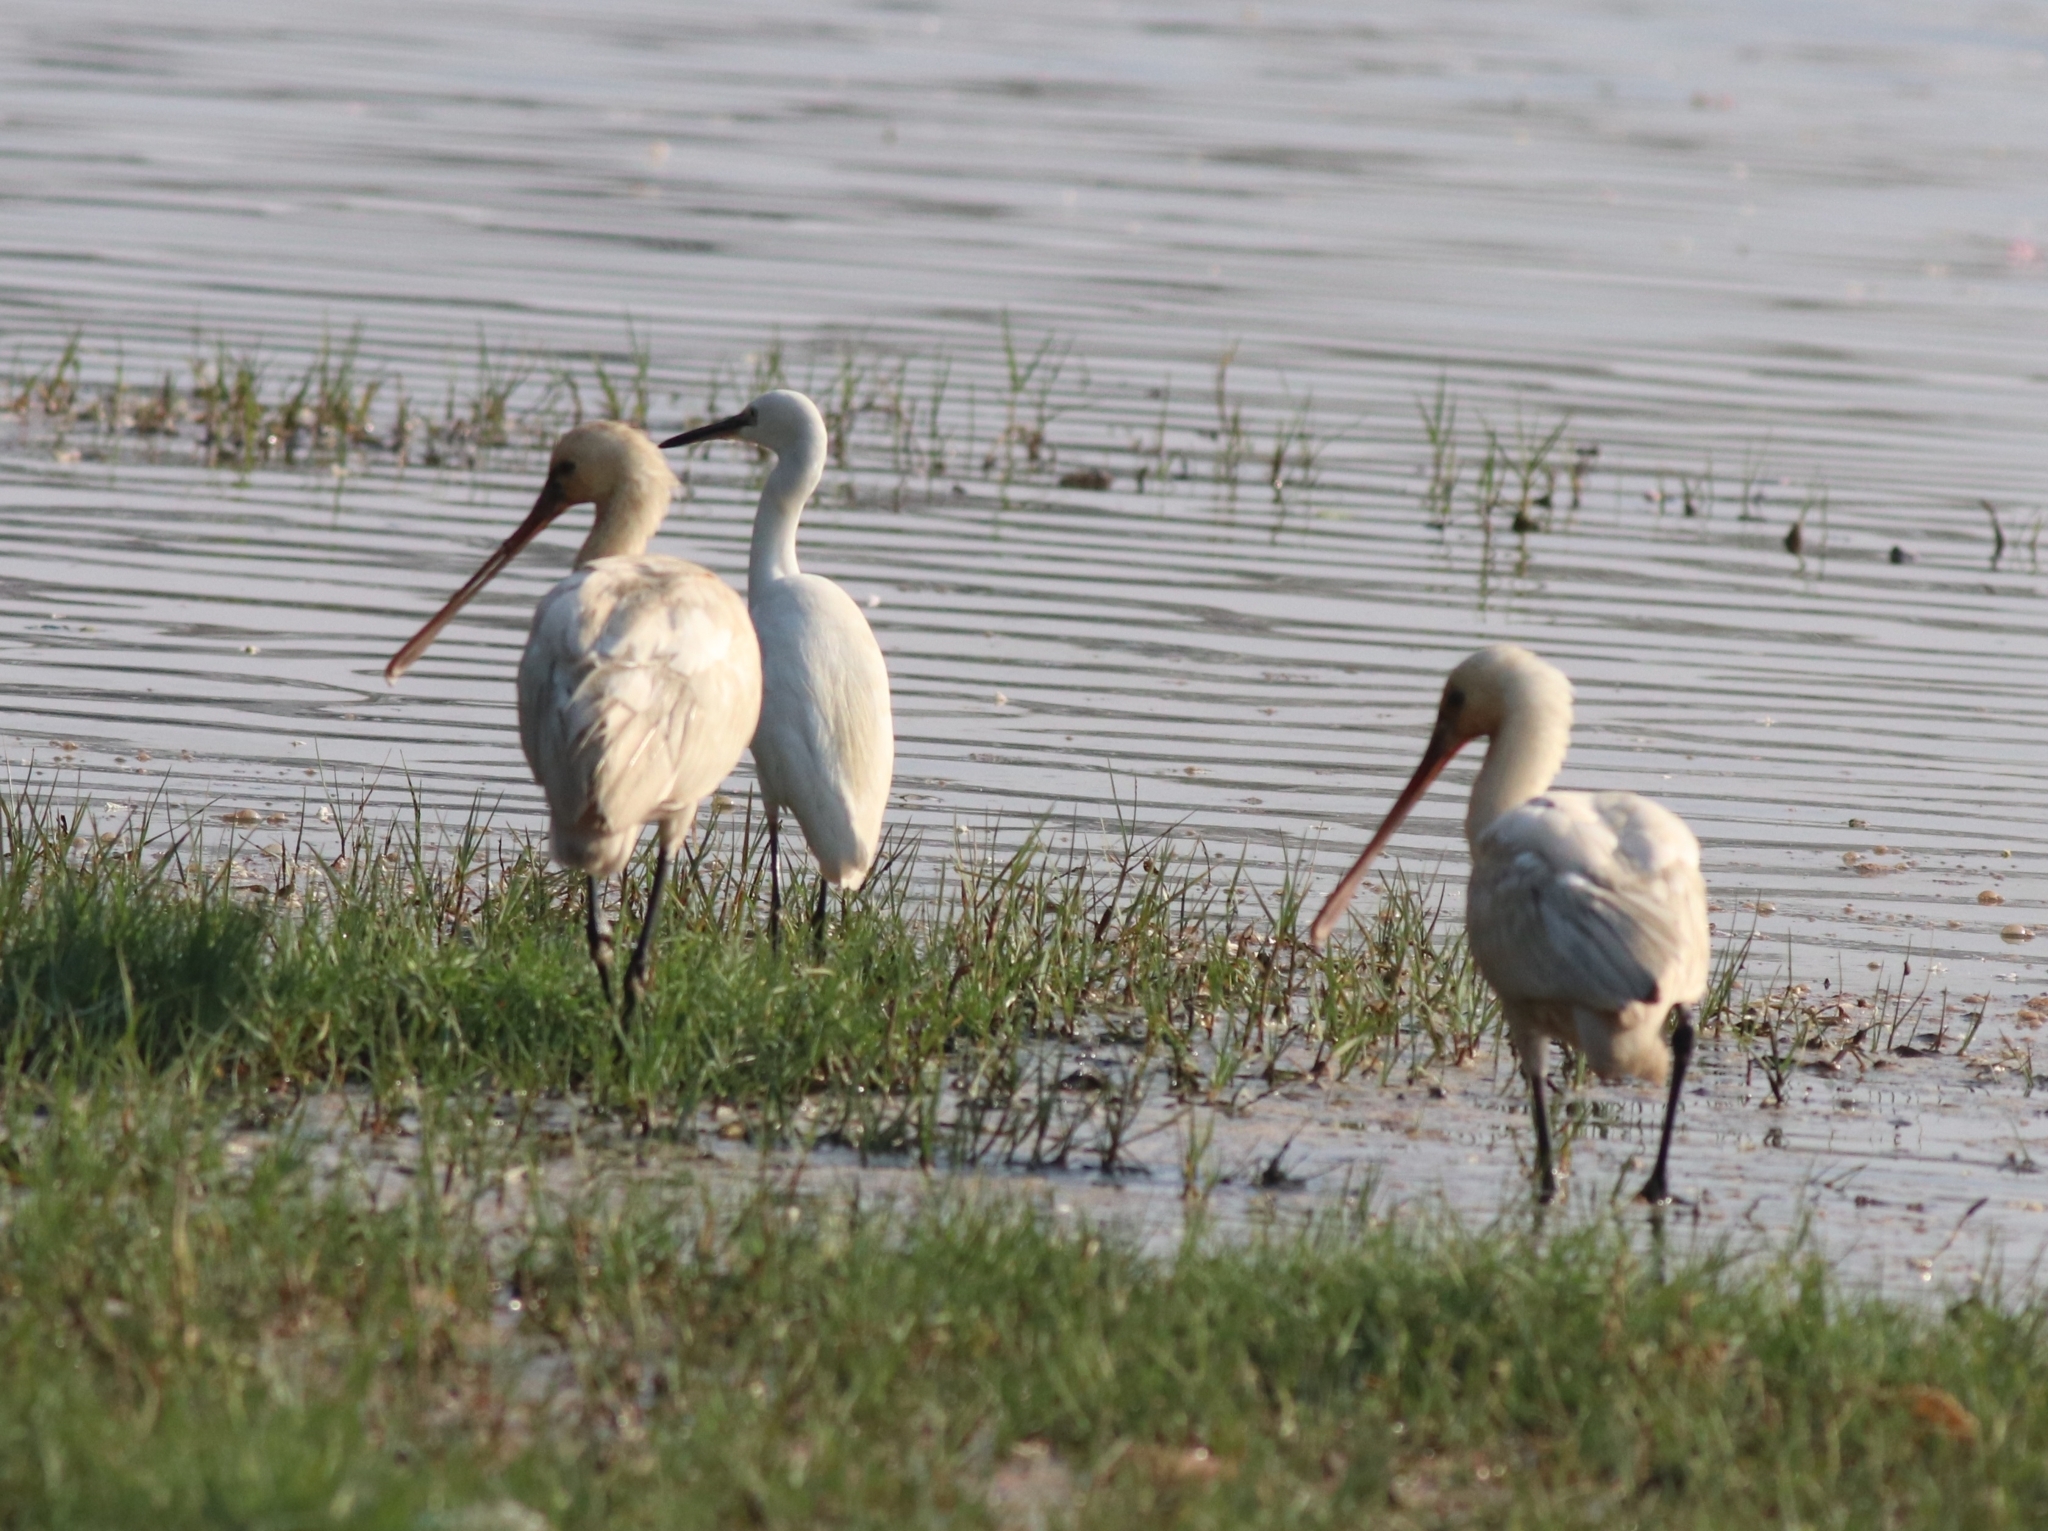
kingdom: Animalia
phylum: Chordata
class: Aves
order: Pelecaniformes
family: Threskiornithidae
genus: Platalea
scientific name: Platalea leucorodia
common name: Eurasian spoonbill
